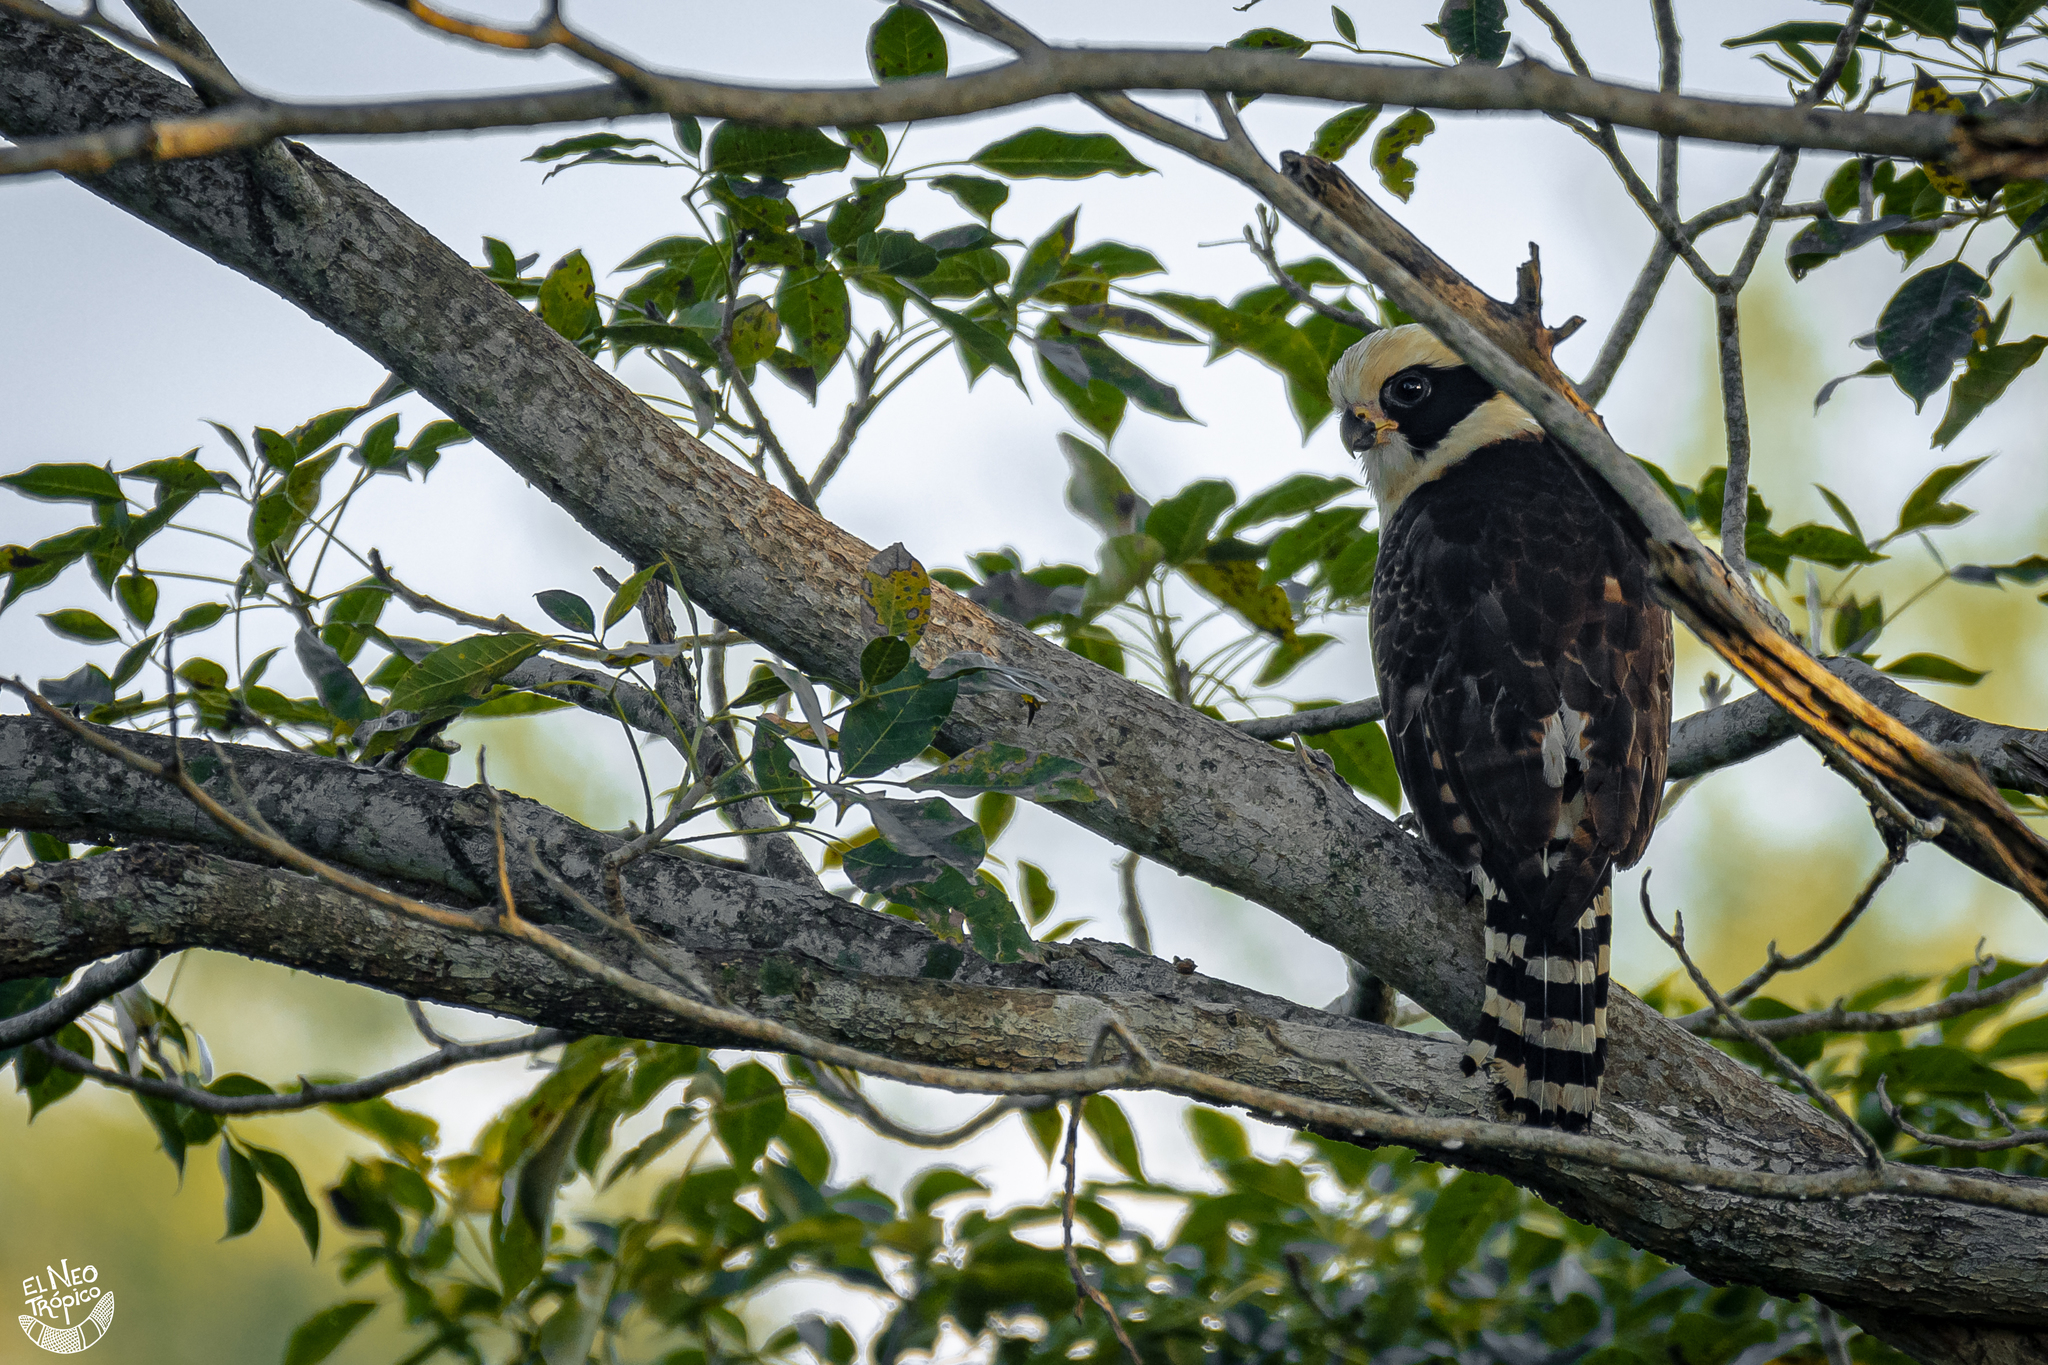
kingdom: Animalia
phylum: Chordata
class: Aves
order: Falconiformes
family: Falconidae
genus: Herpetotheres
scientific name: Herpetotheres cachinnans
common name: Laughing falcon
